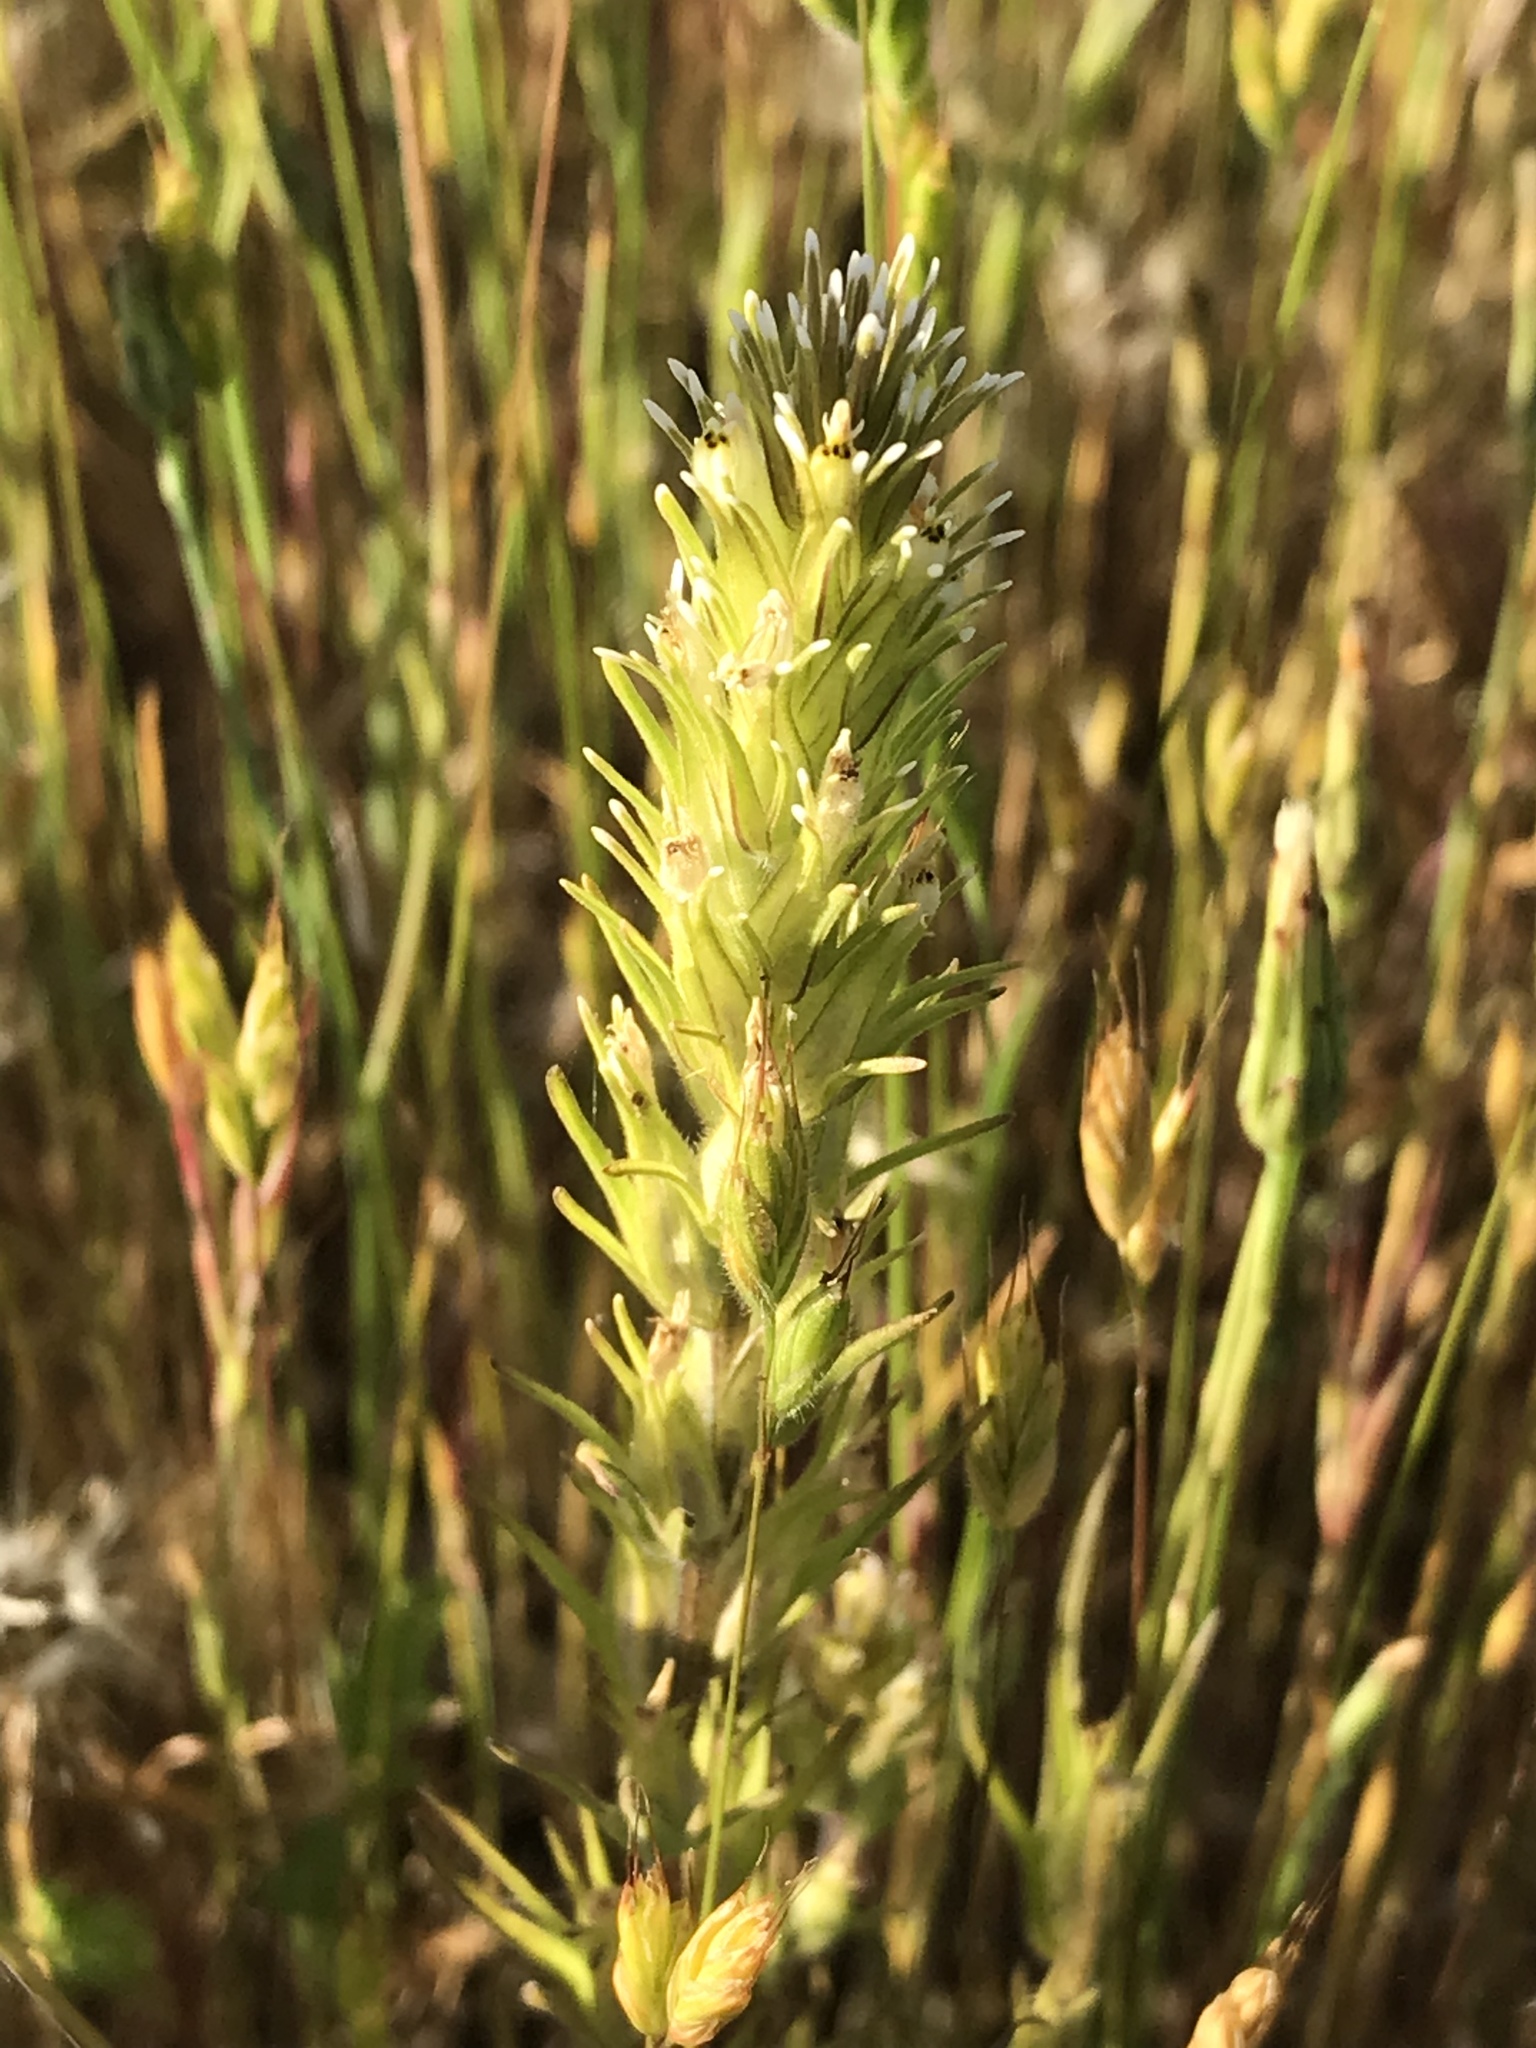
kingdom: Plantae
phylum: Tracheophyta
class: Magnoliopsida
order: Lamiales
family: Orobanchaceae
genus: Castilleja
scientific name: Castilleja attenuata
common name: Valley tassels
